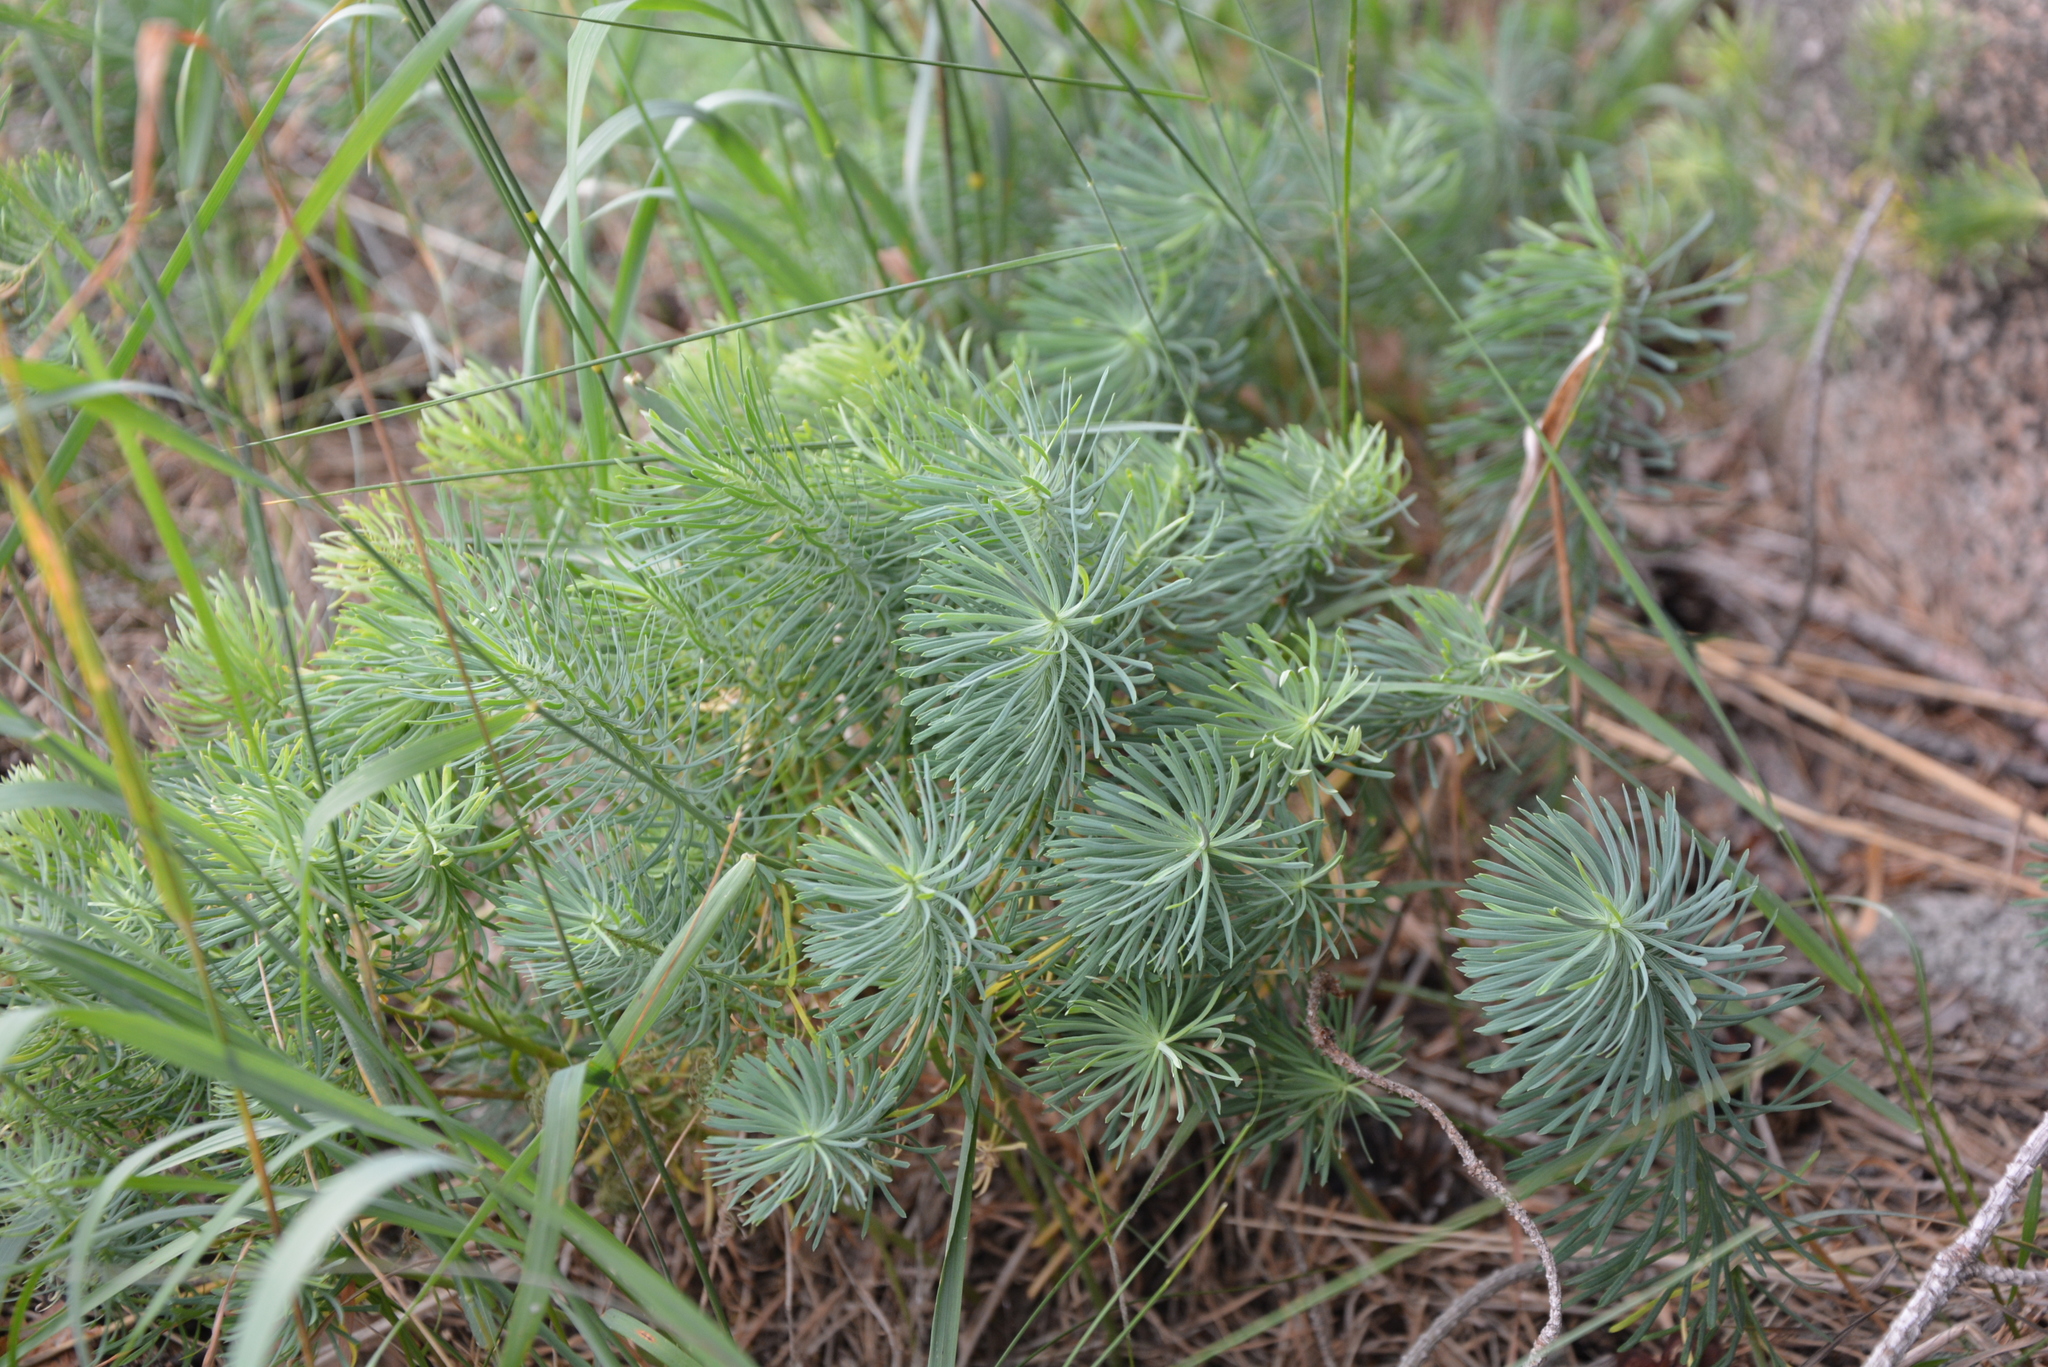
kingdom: Plantae
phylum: Tracheophyta
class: Magnoliopsida
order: Malpighiales
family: Euphorbiaceae
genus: Euphorbia
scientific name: Euphorbia cyparissias
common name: Cypress spurge
